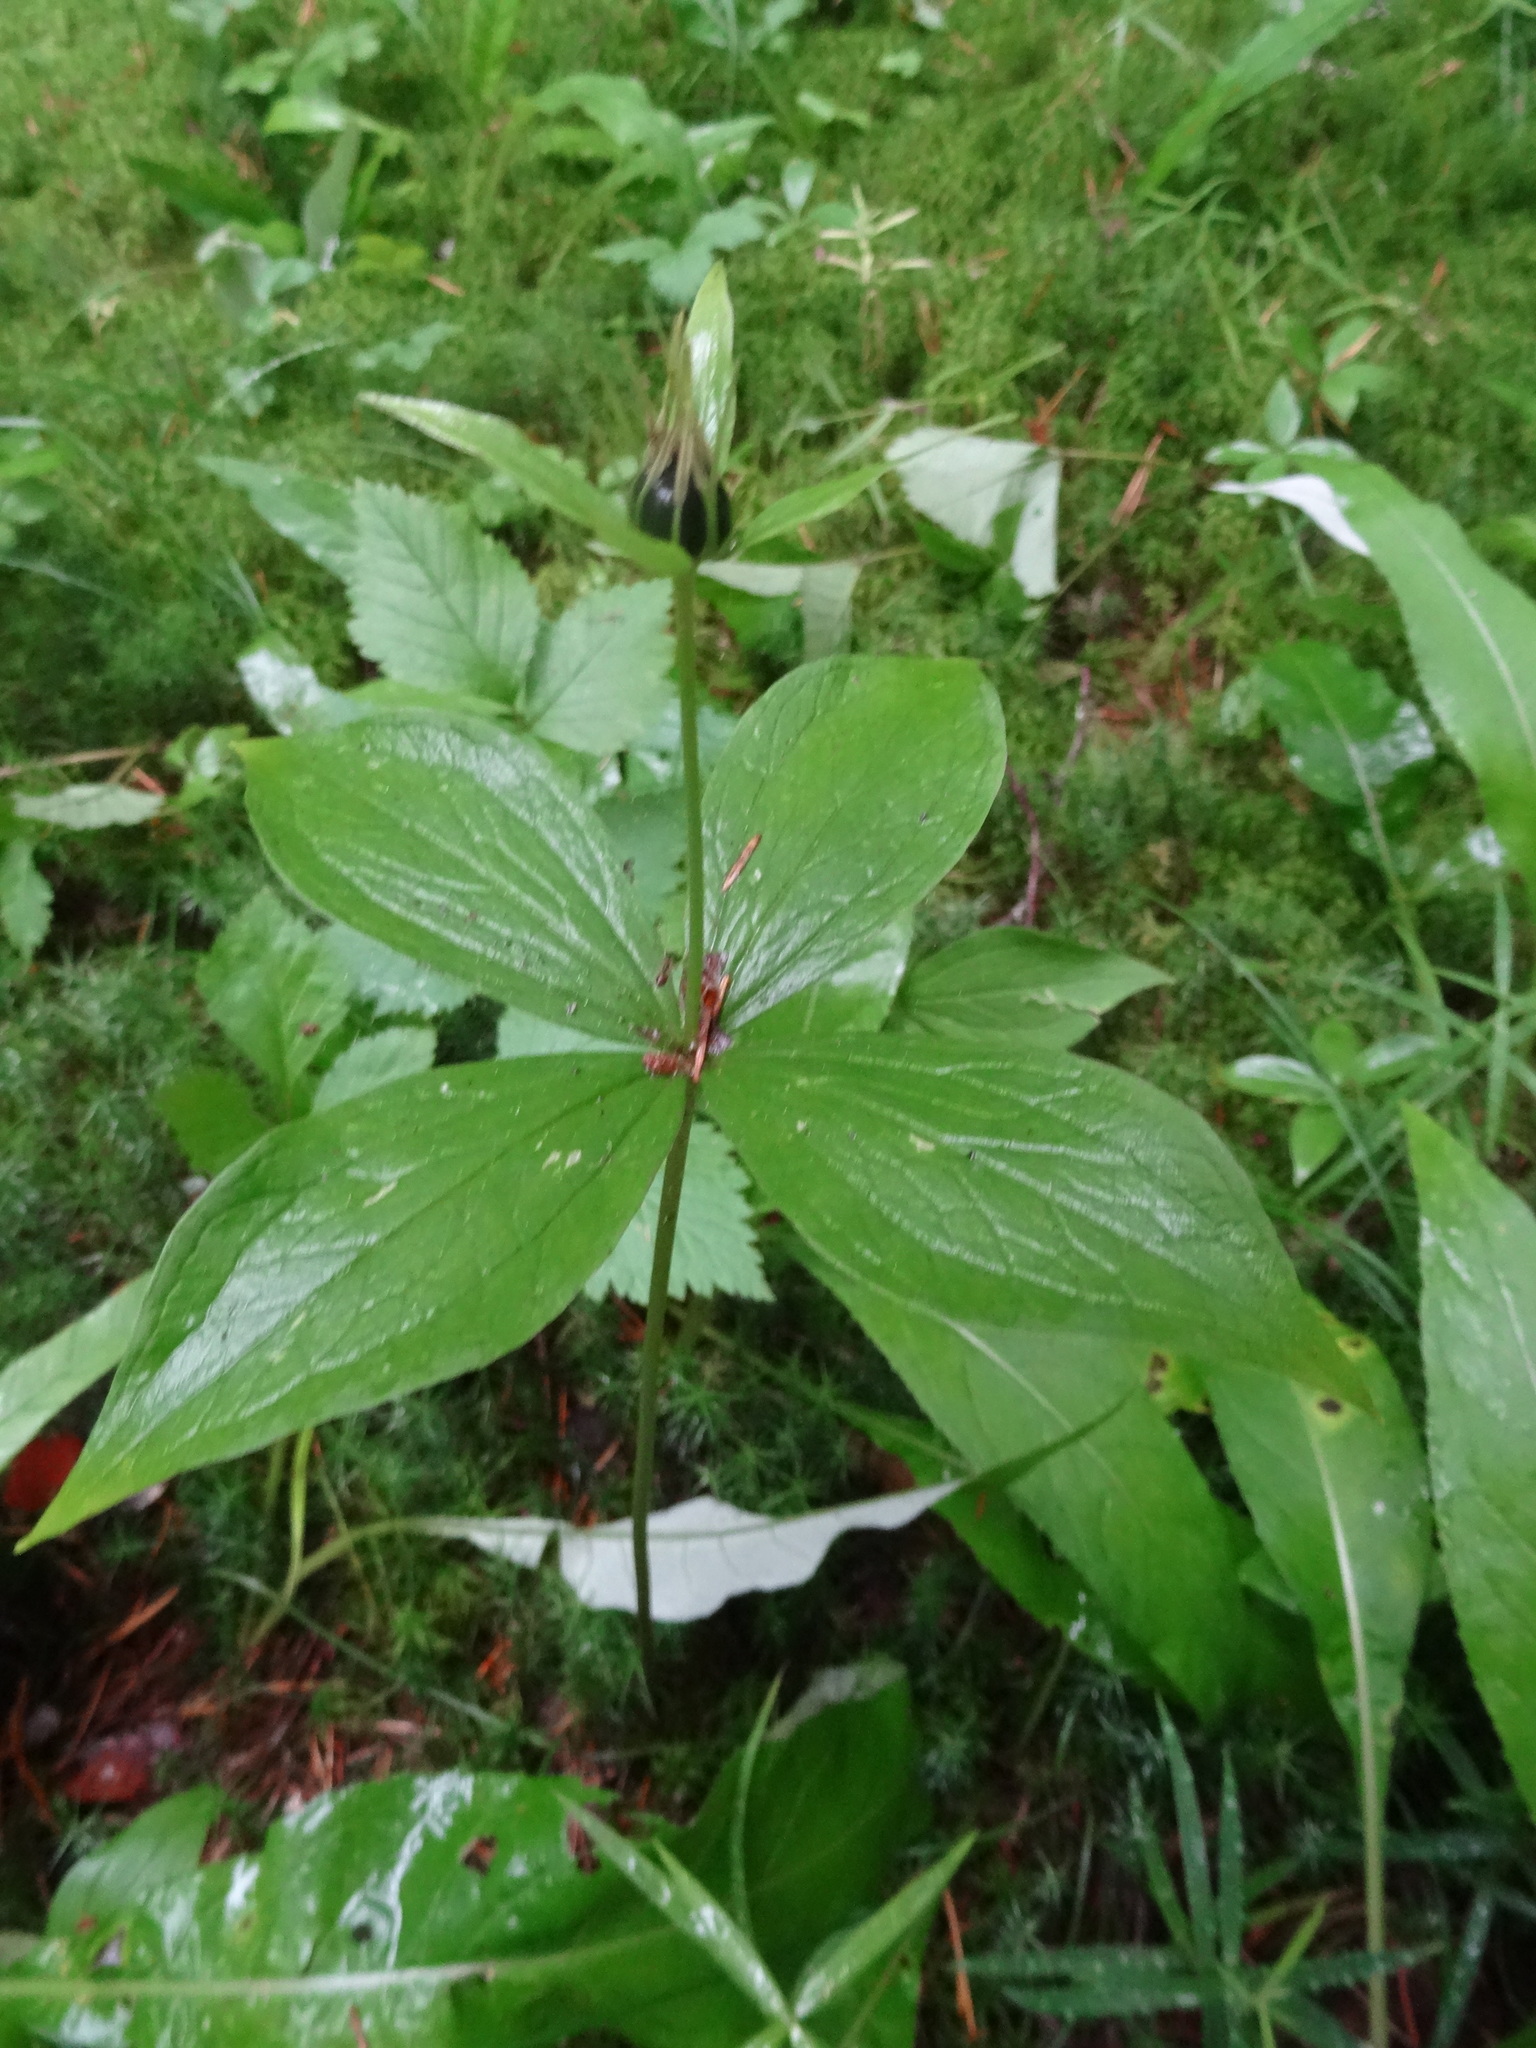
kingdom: Plantae
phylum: Tracheophyta
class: Liliopsida
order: Liliales
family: Melanthiaceae
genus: Paris
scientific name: Paris quadrifolia
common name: Herb-paris
